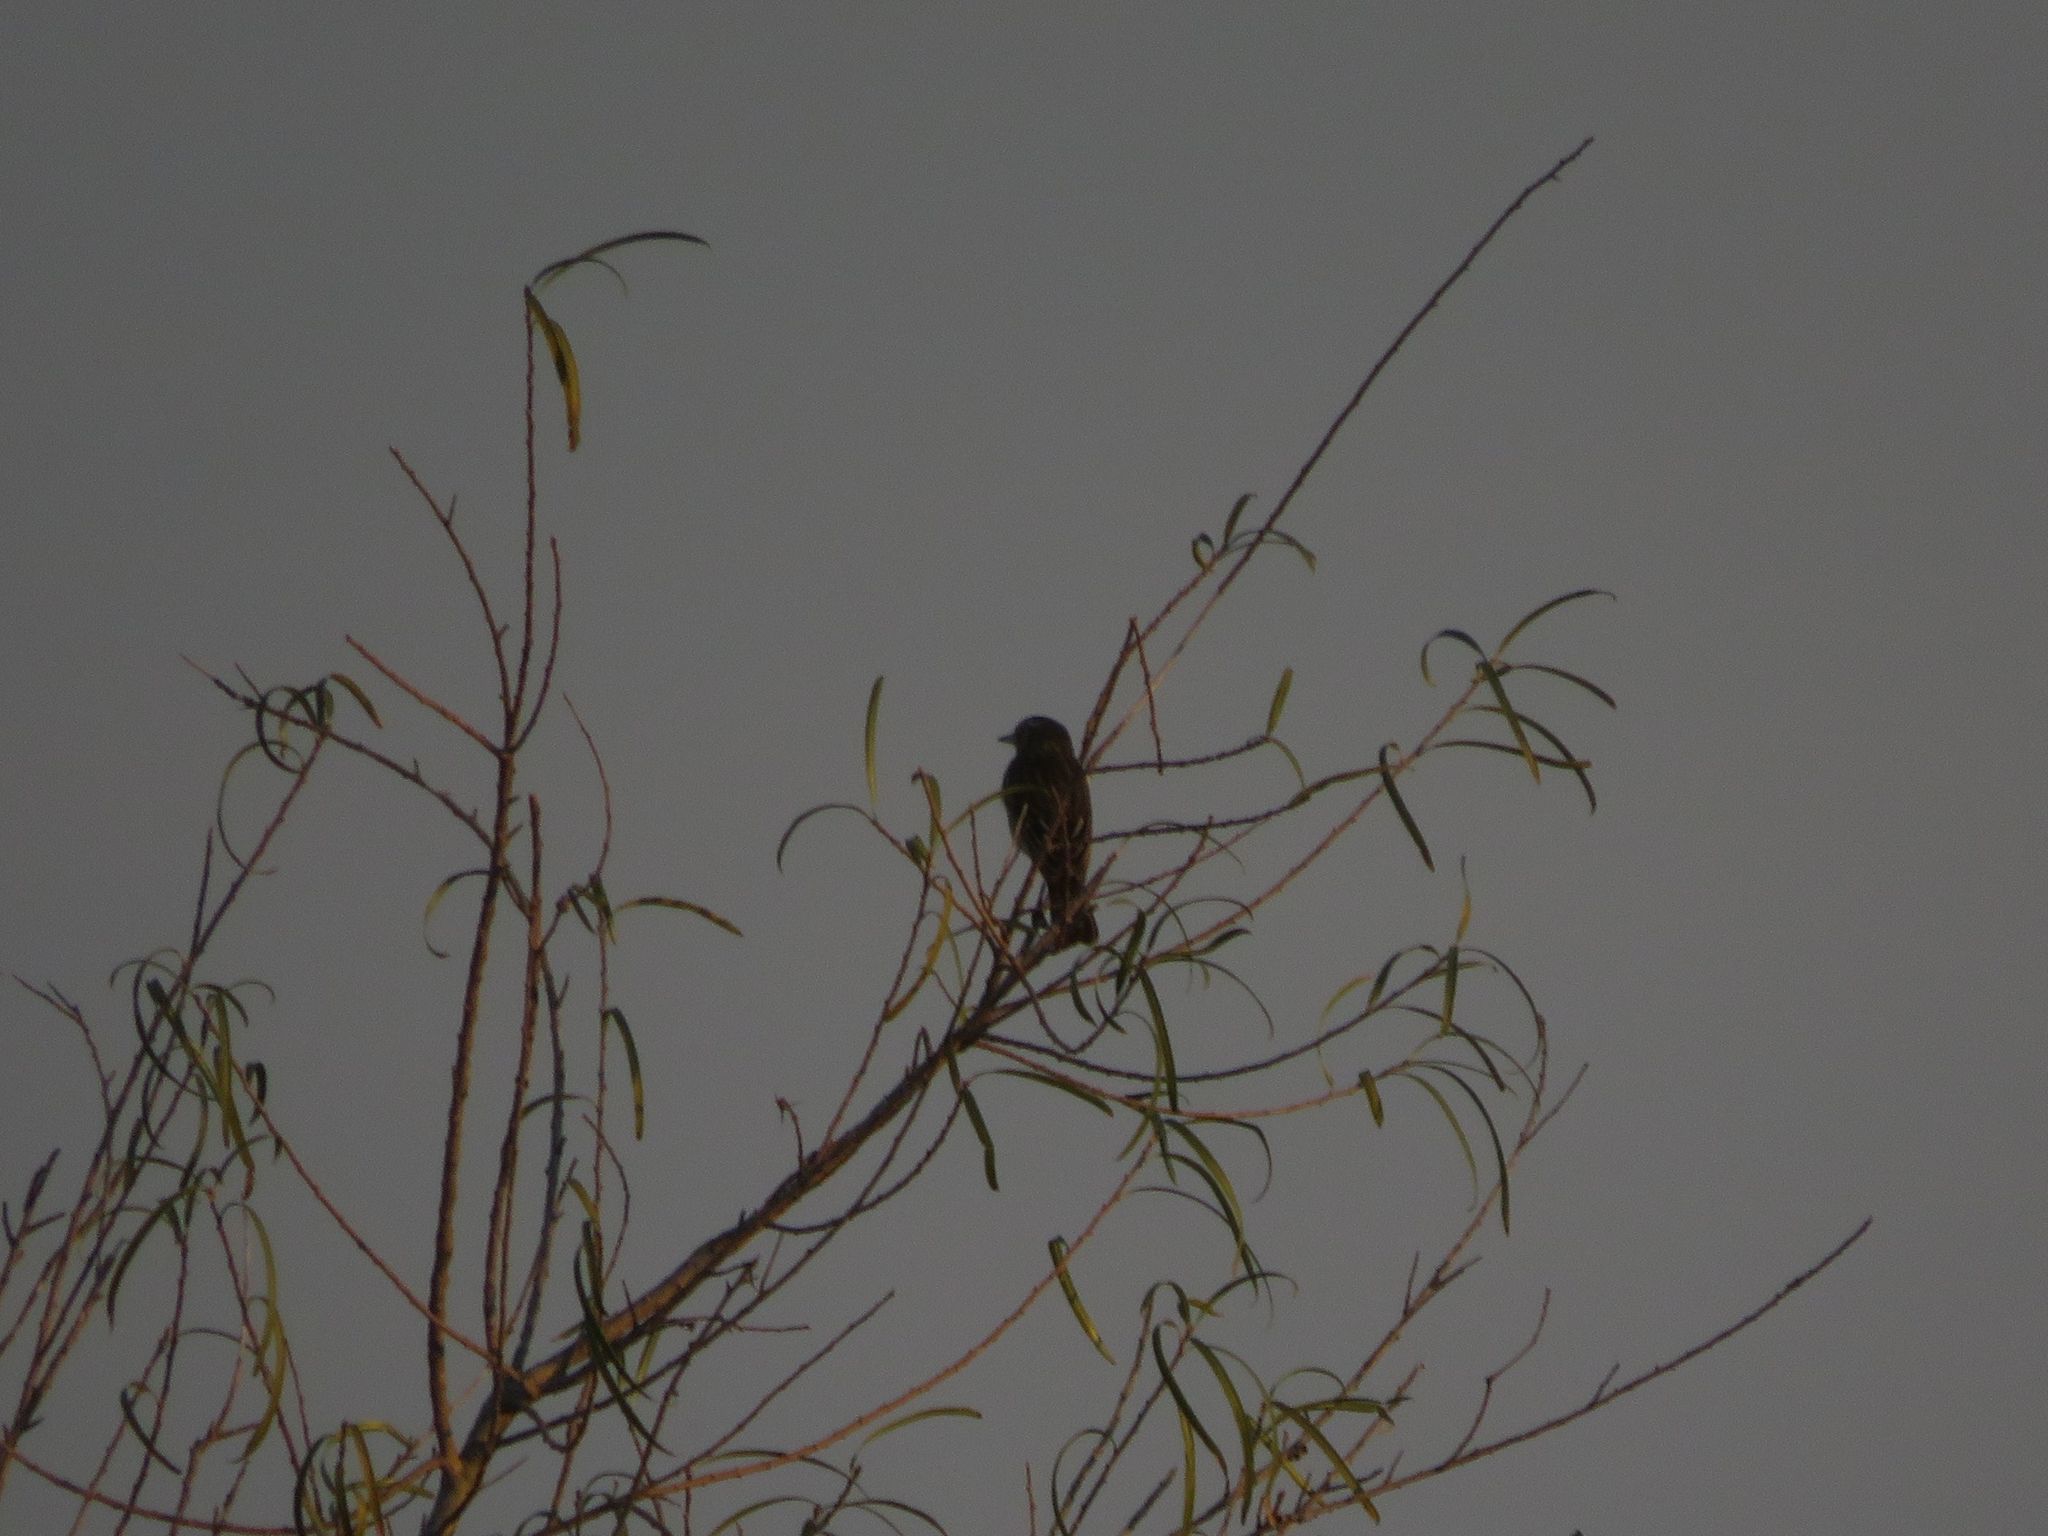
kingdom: Animalia
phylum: Chordata
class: Aves
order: Passeriformes
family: Tyrannidae
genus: Hymenops
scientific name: Hymenops perspicillatus
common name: Spectacled tyrant
